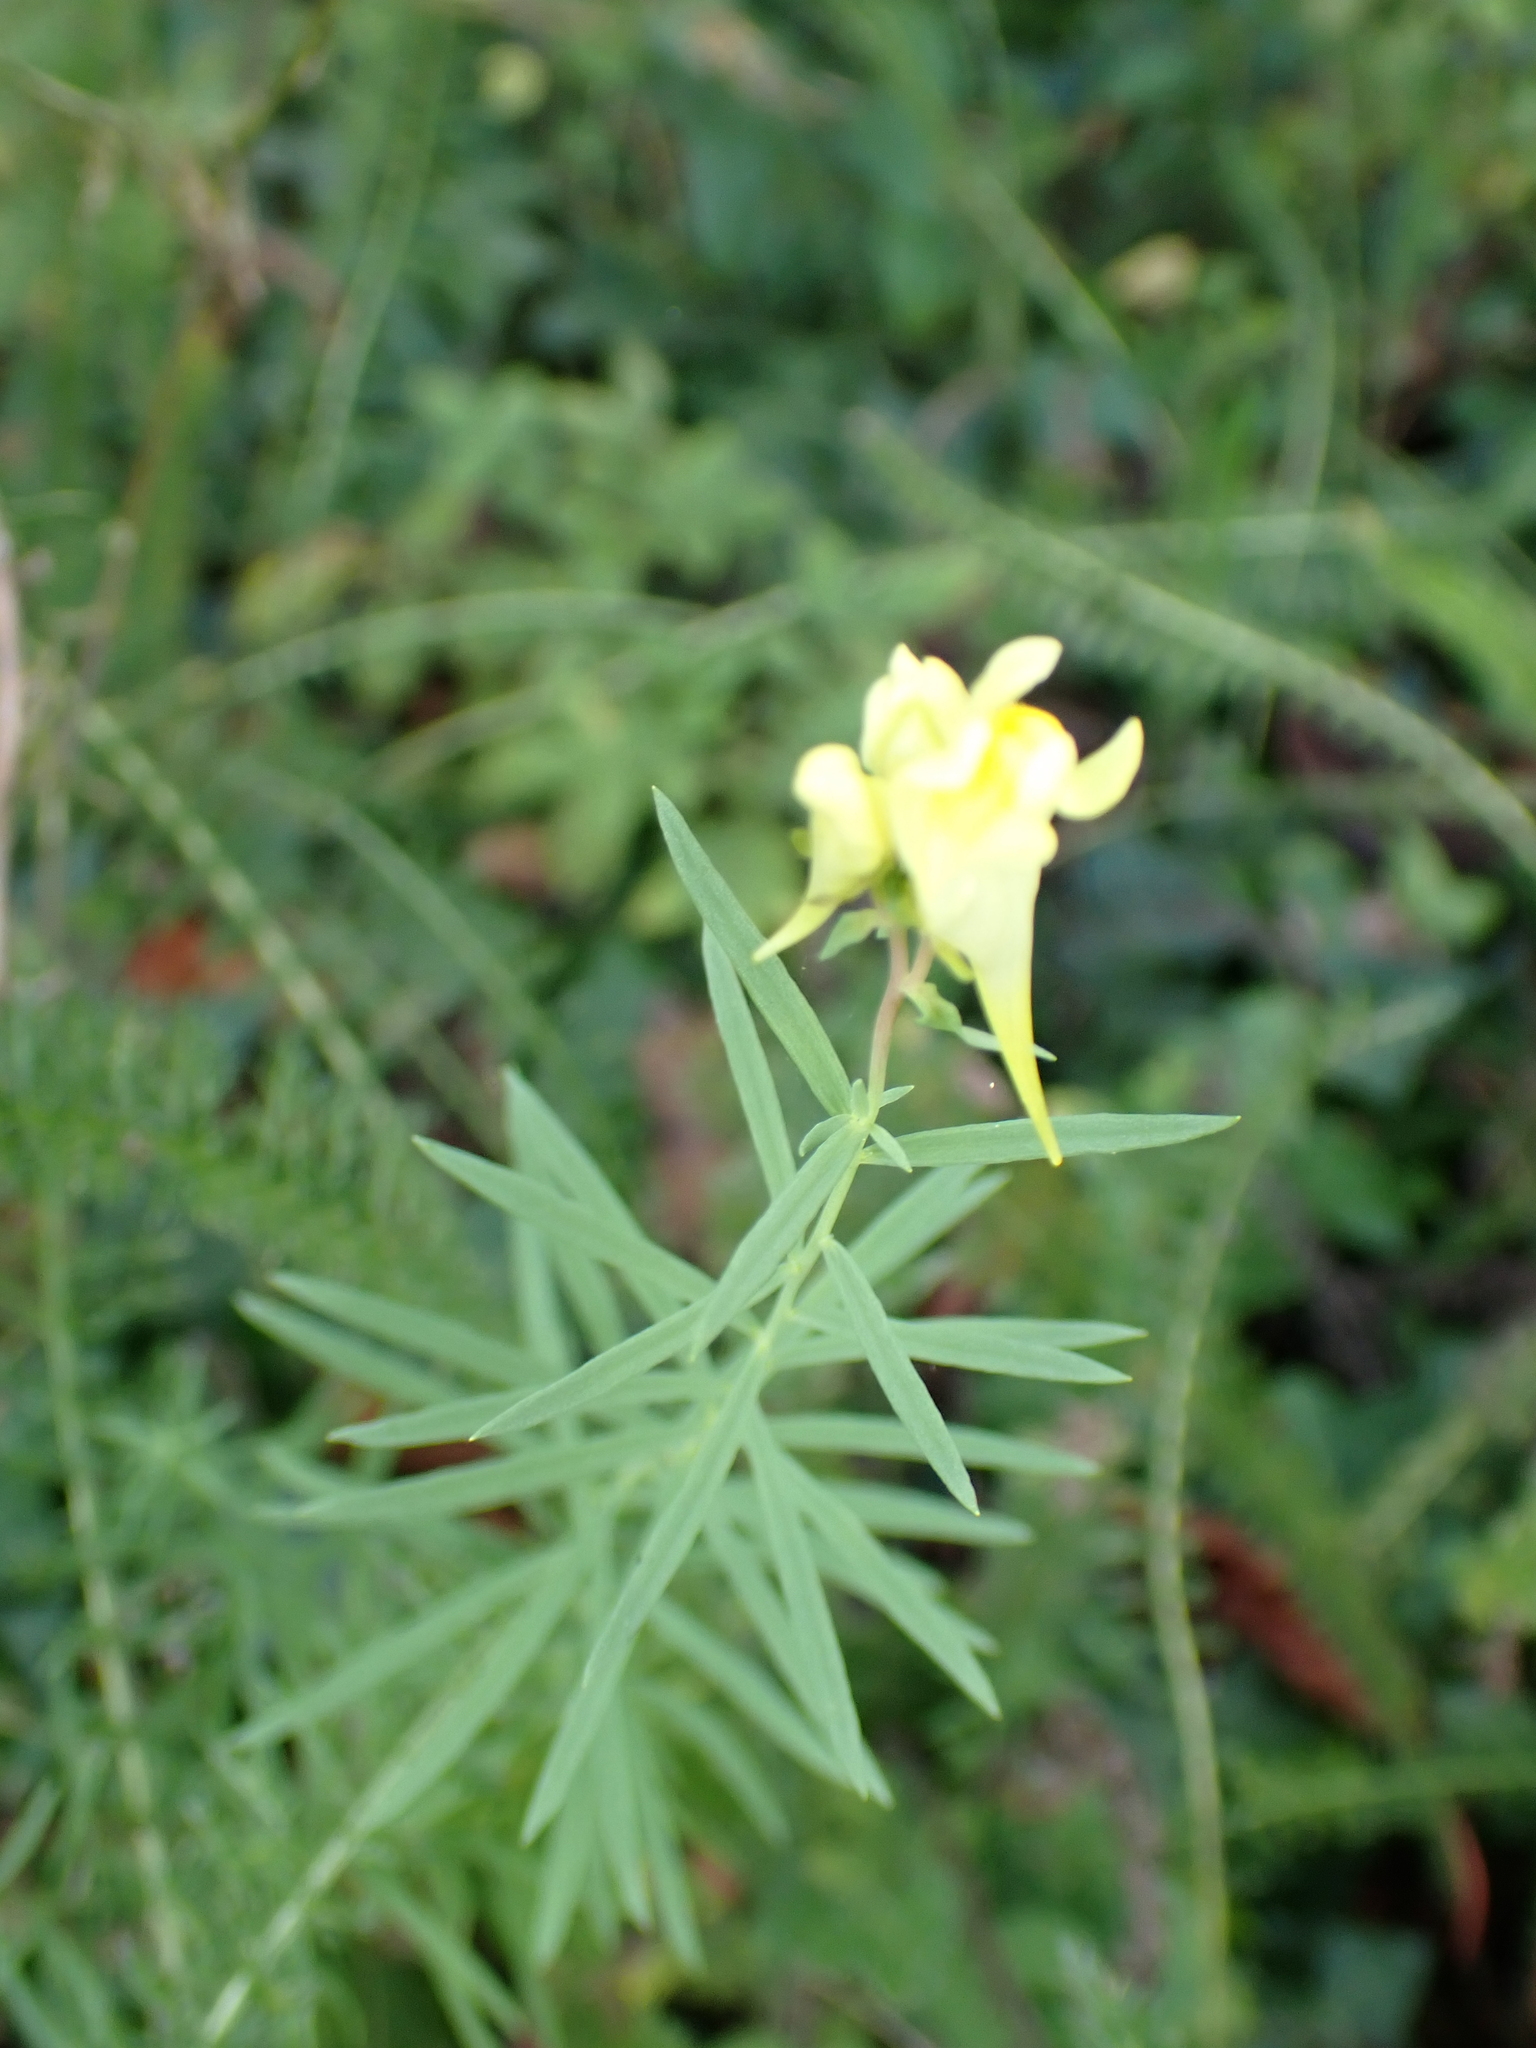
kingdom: Plantae
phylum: Tracheophyta
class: Magnoliopsida
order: Lamiales
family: Plantaginaceae
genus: Linaria
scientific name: Linaria vulgaris
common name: Butter and eggs
